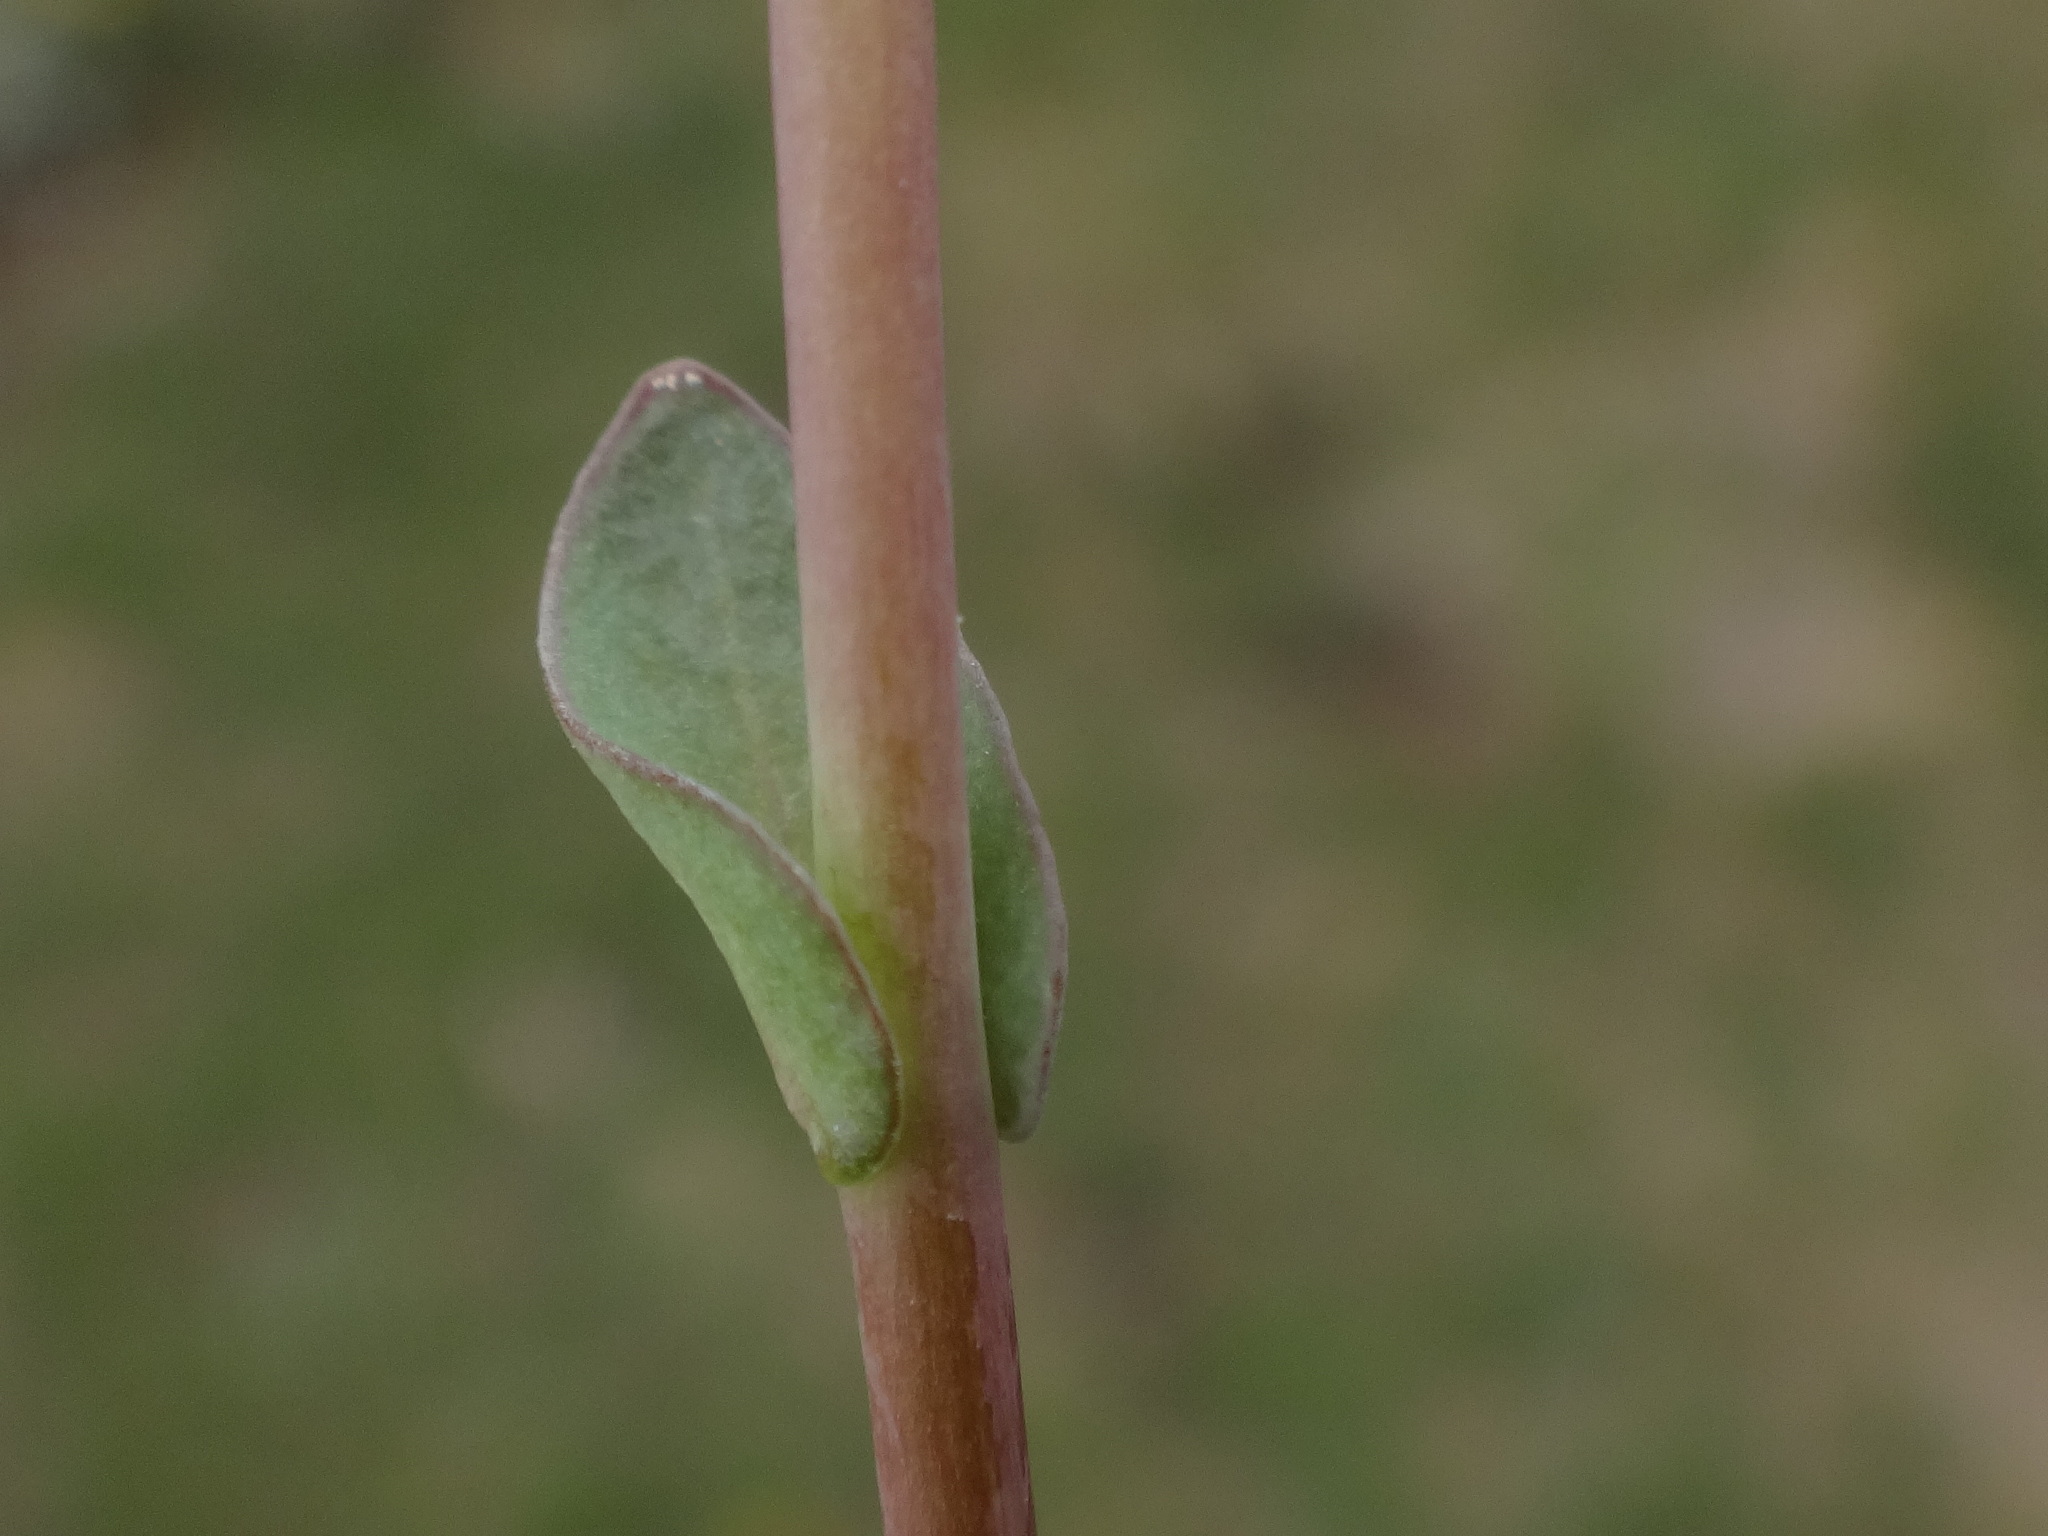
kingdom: Plantae
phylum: Tracheophyta
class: Magnoliopsida
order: Brassicales
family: Brassicaceae
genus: Noccaea
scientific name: Noccaea alpestris
